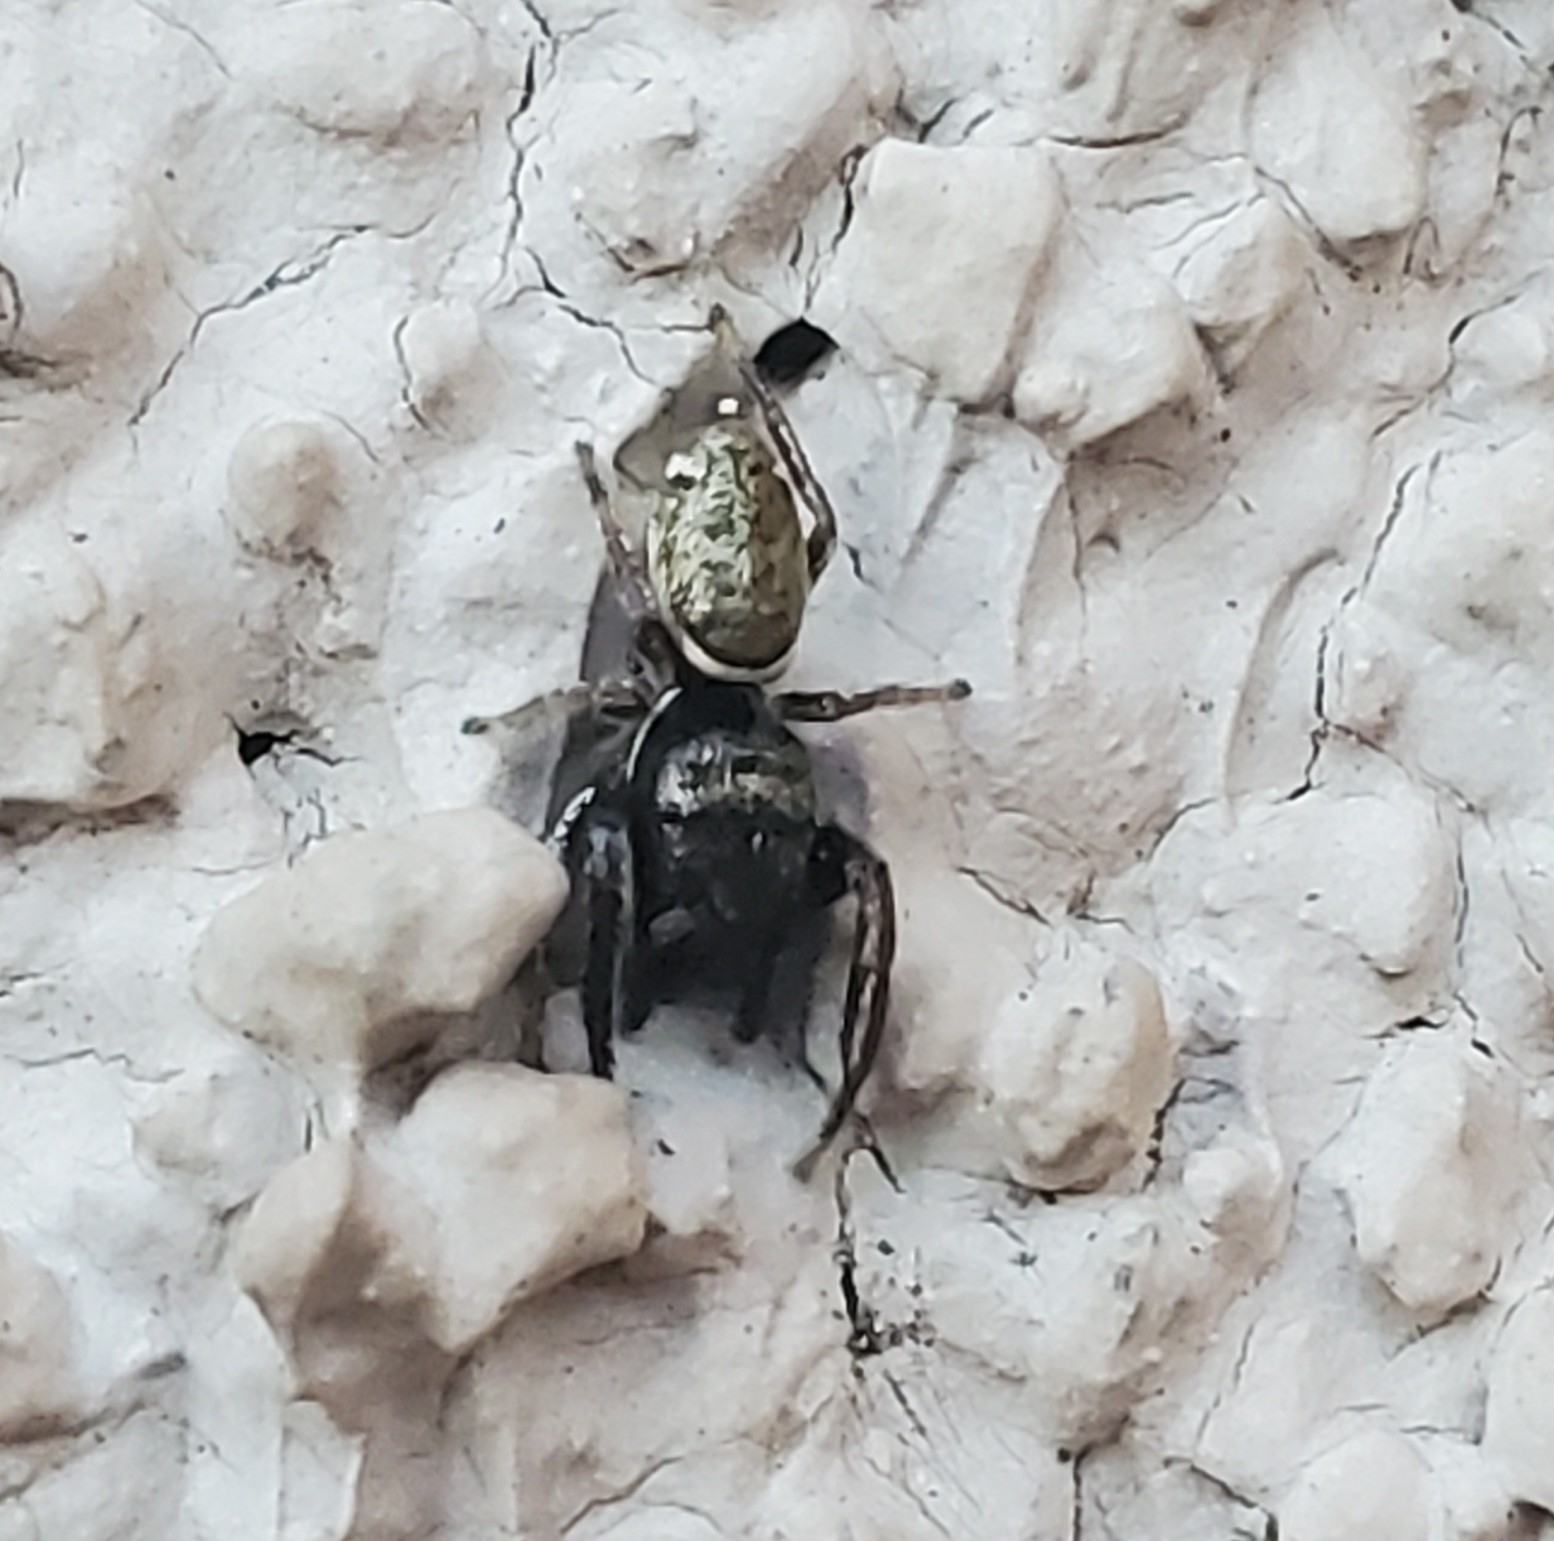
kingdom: Animalia
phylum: Arthropoda
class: Arachnida
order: Araneae
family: Salticidae
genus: Sassacus
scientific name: Sassacus vitis
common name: Jumping spiders
